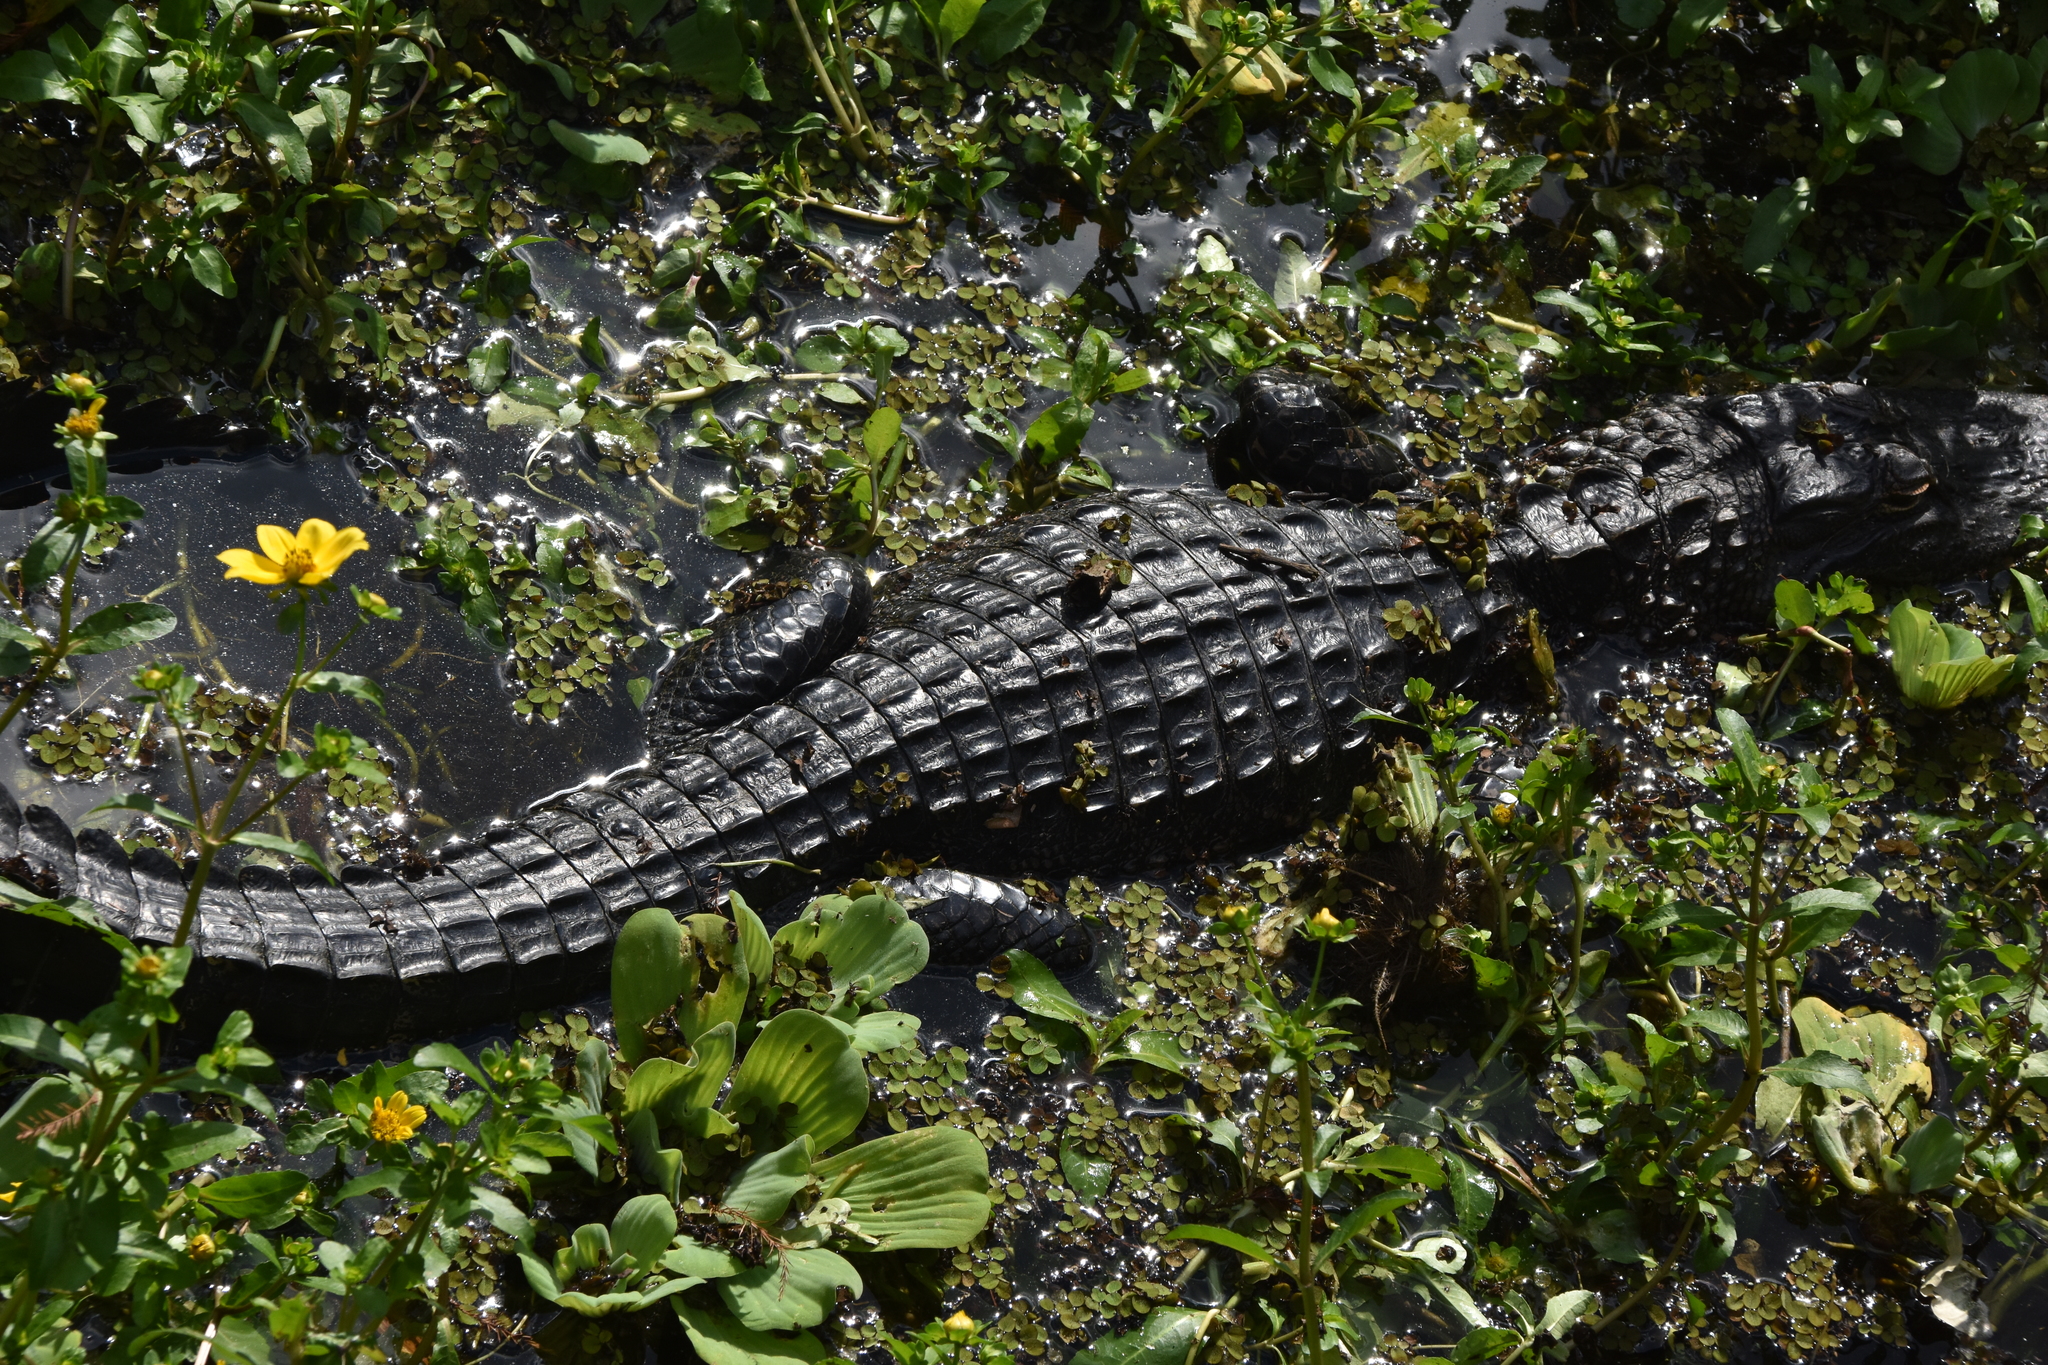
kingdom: Animalia
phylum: Chordata
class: Crocodylia
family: Alligatoridae
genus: Alligator
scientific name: Alligator mississippiensis
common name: American alligator
